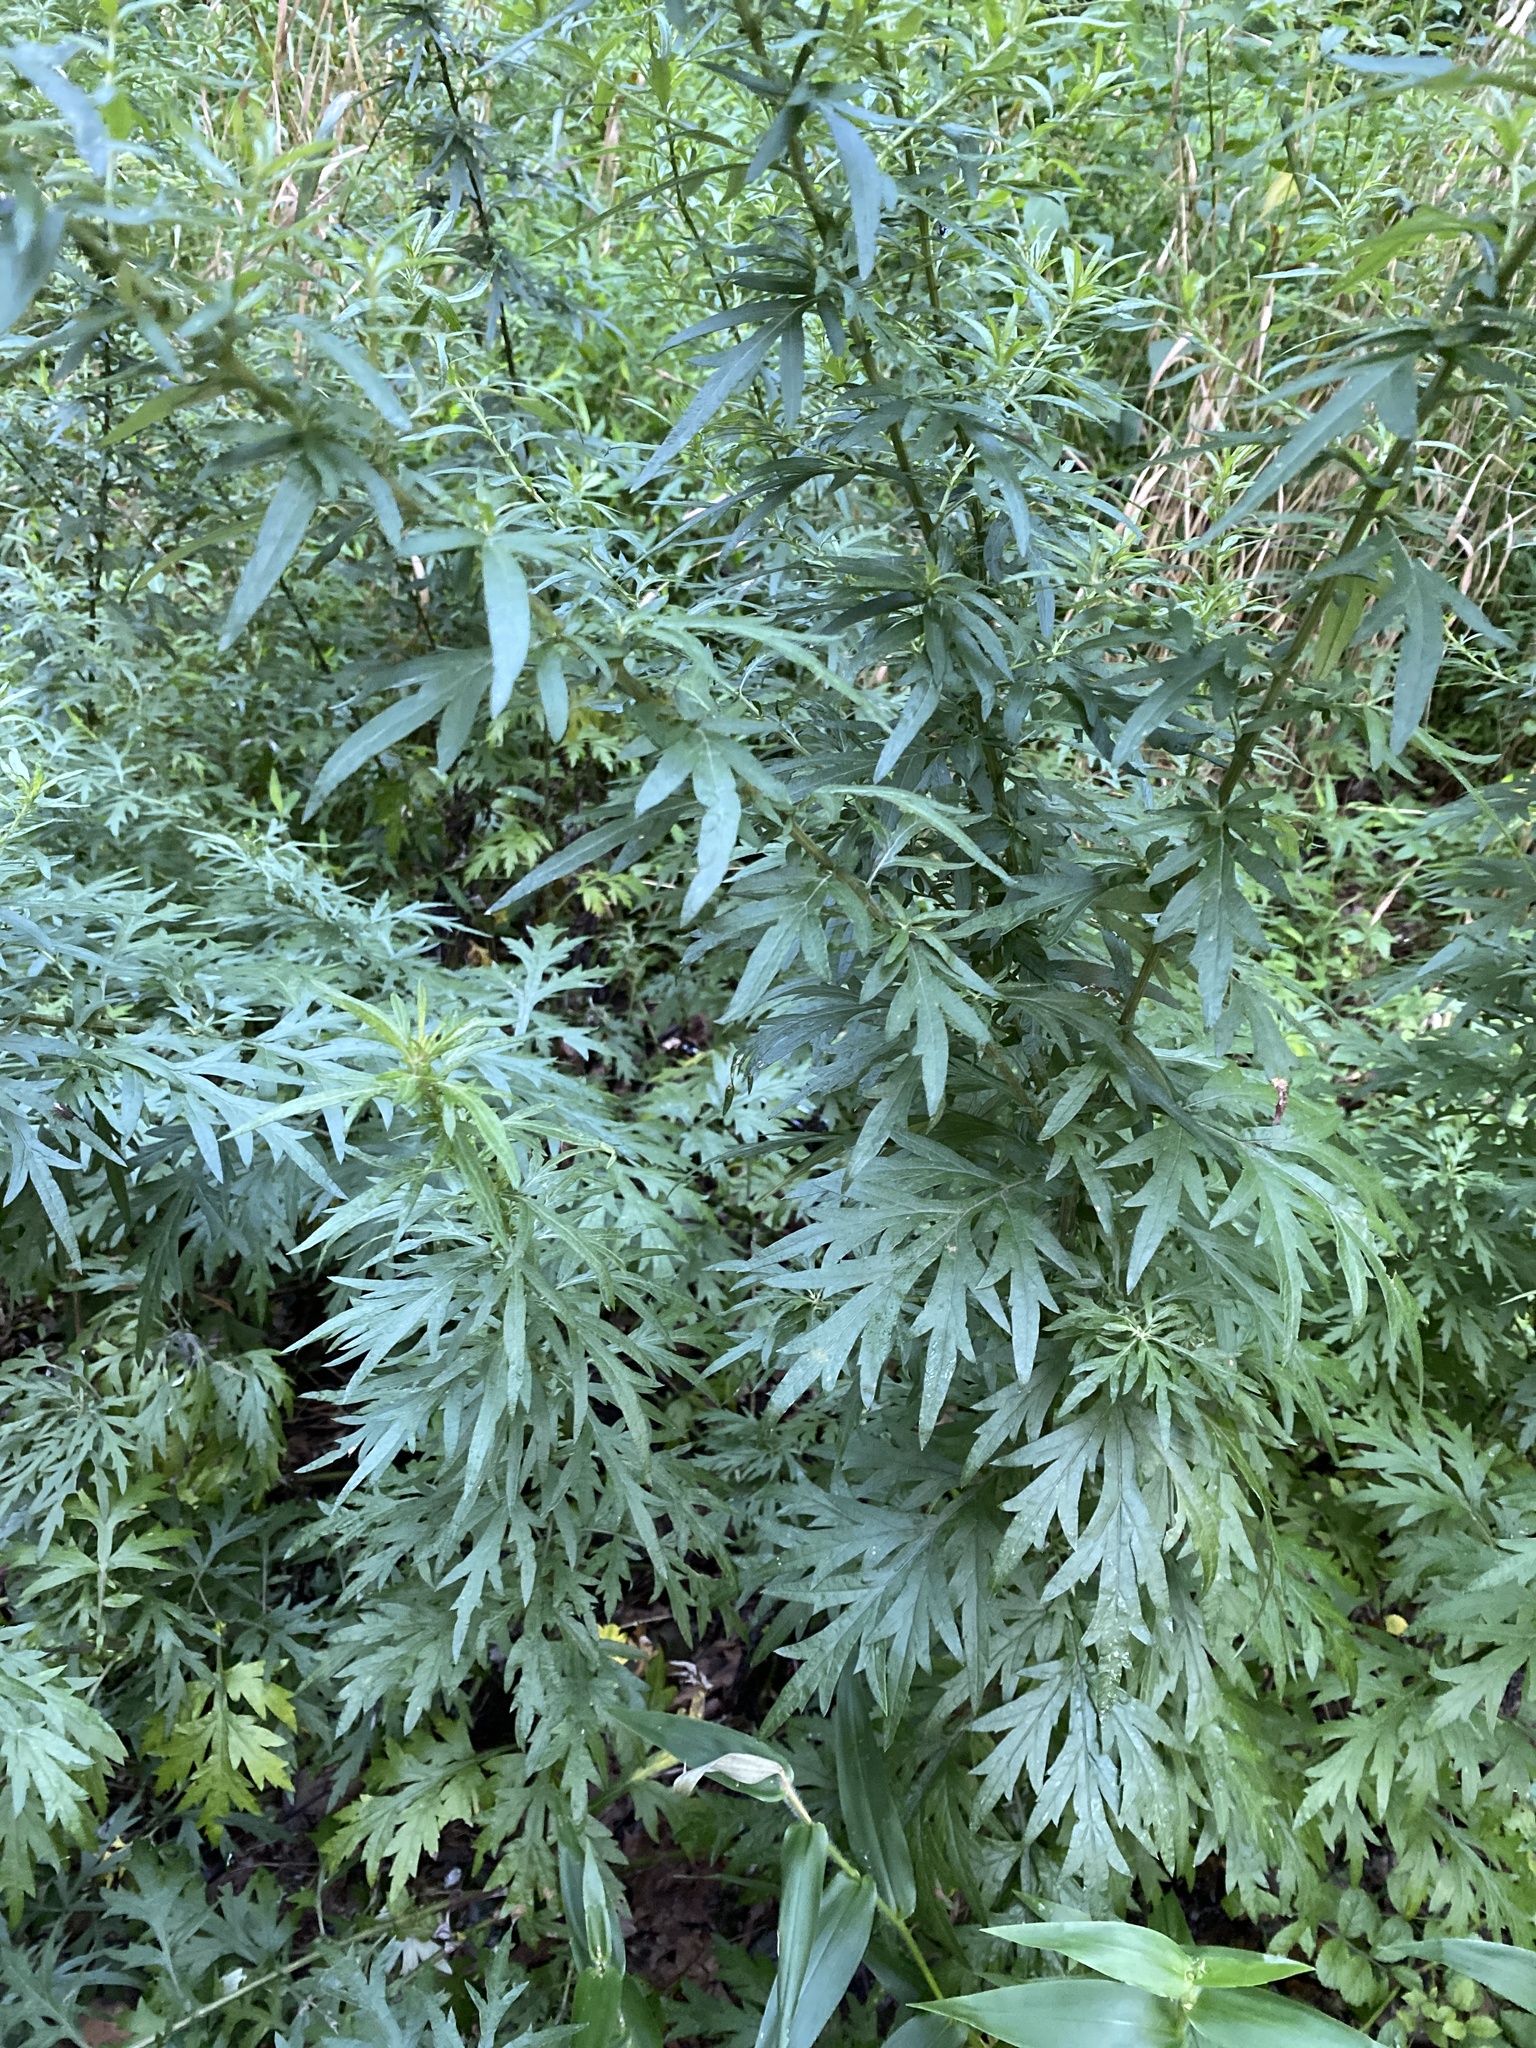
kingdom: Plantae
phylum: Tracheophyta
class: Magnoliopsida
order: Asterales
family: Asteraceae
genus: Artemisia
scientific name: Artemisia vulgaris
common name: Mugwort
